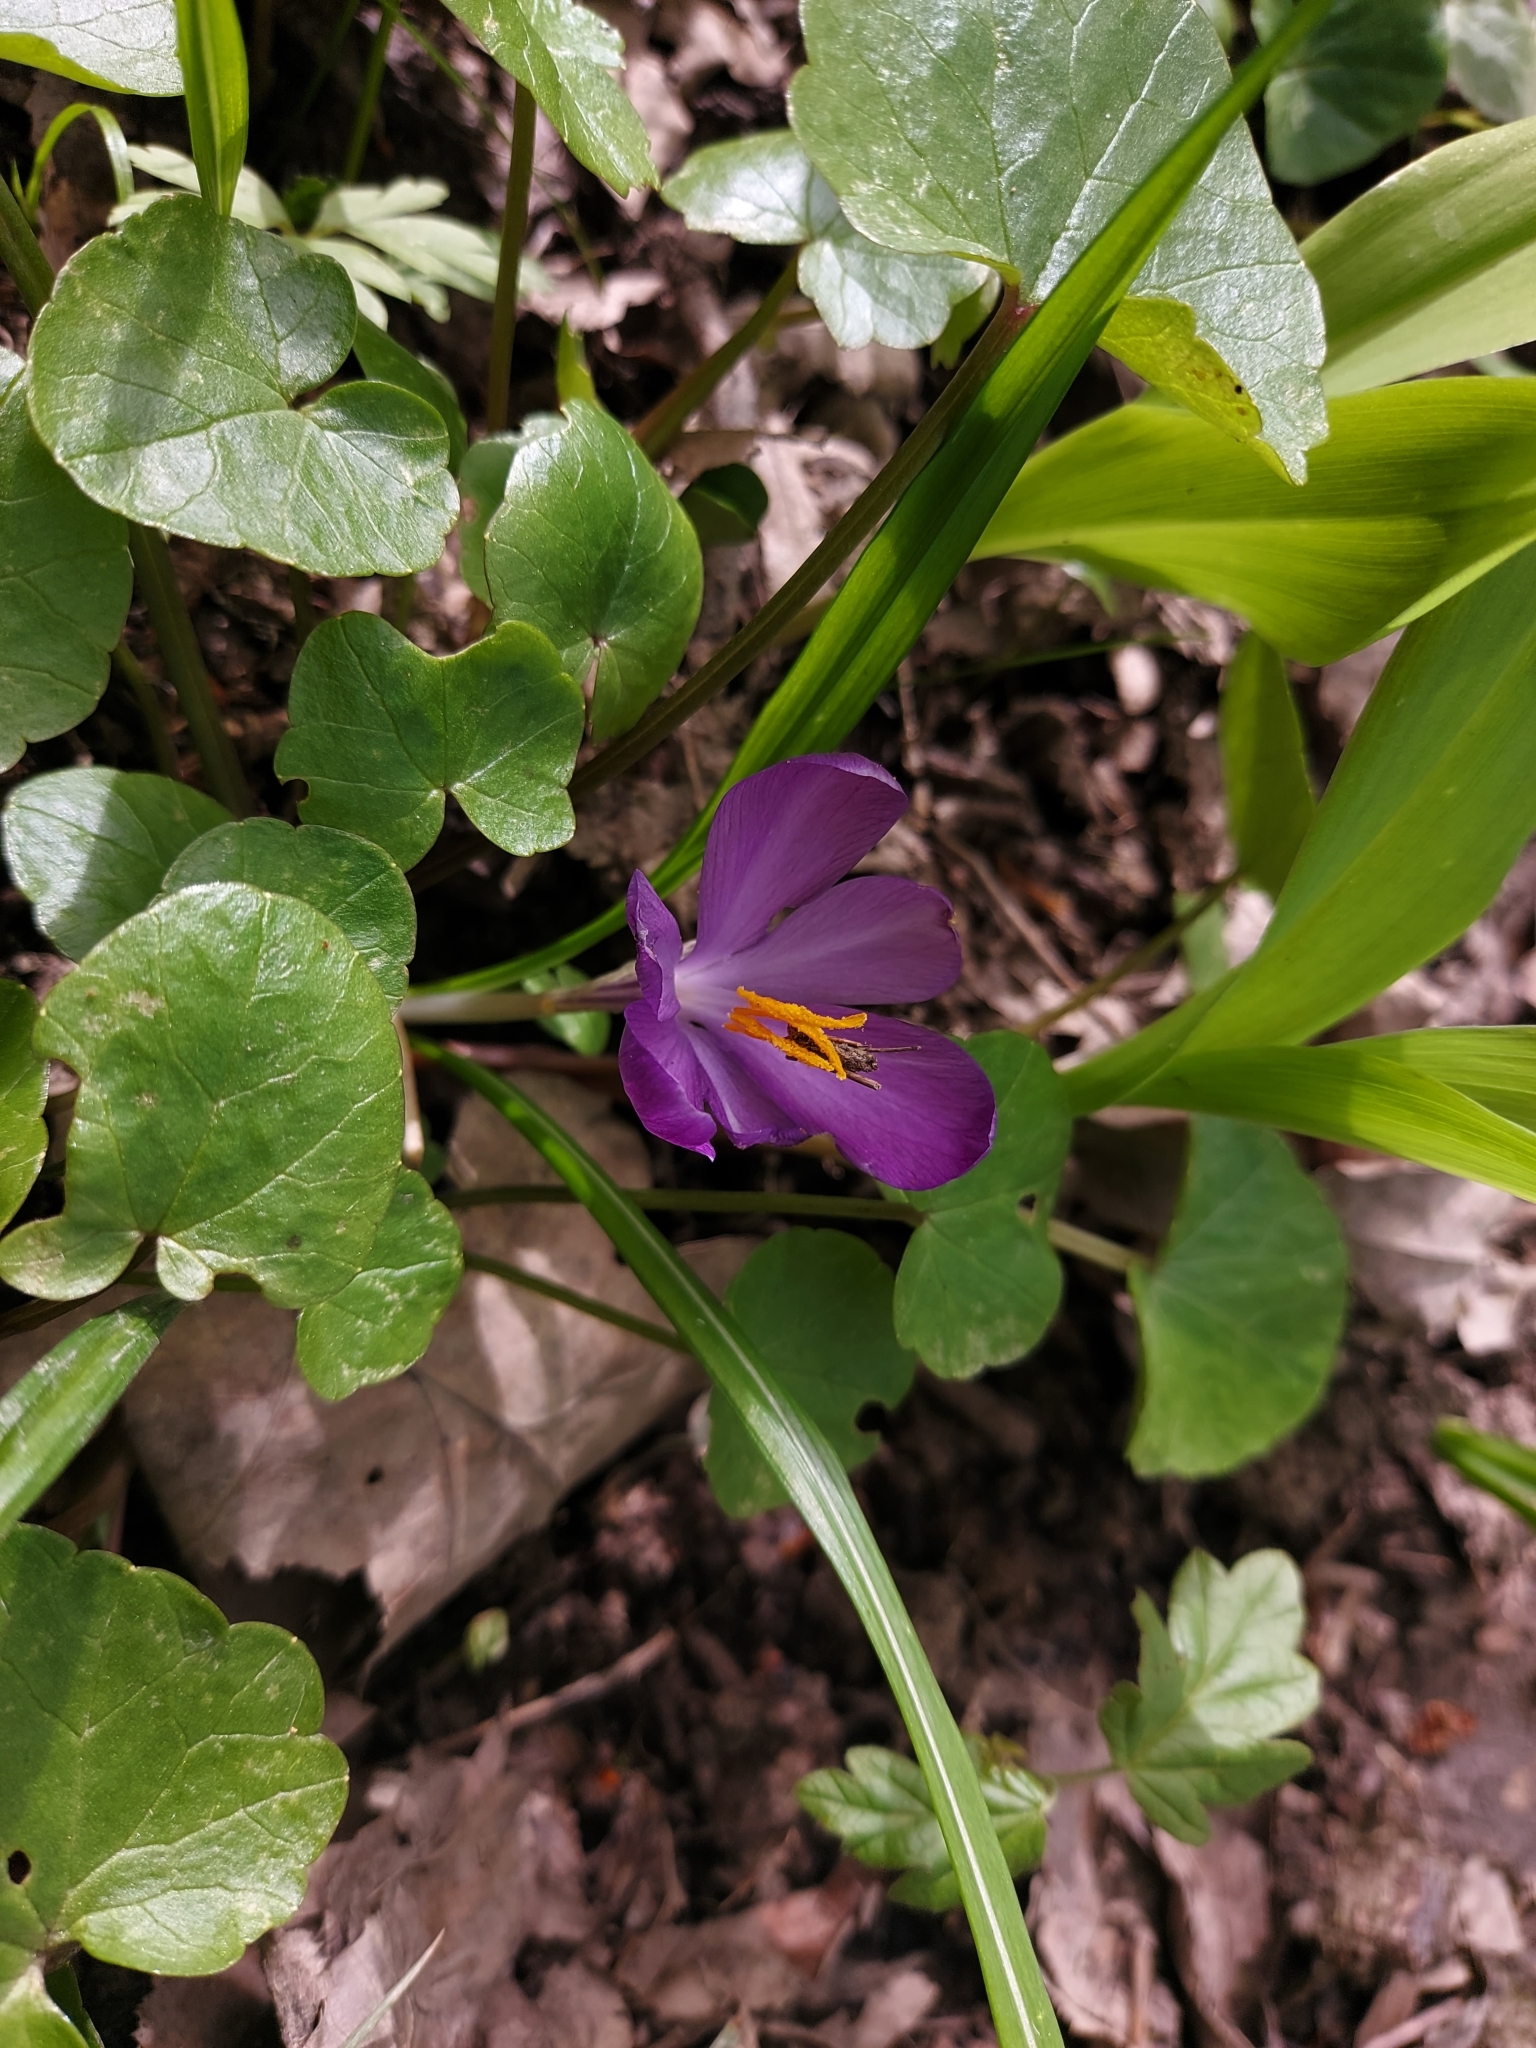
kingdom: Plantae
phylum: Tracheophyta
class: Liliopsida
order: Asparagales
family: Iridaceae
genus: Crocus
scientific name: Crocus heuffelianus
